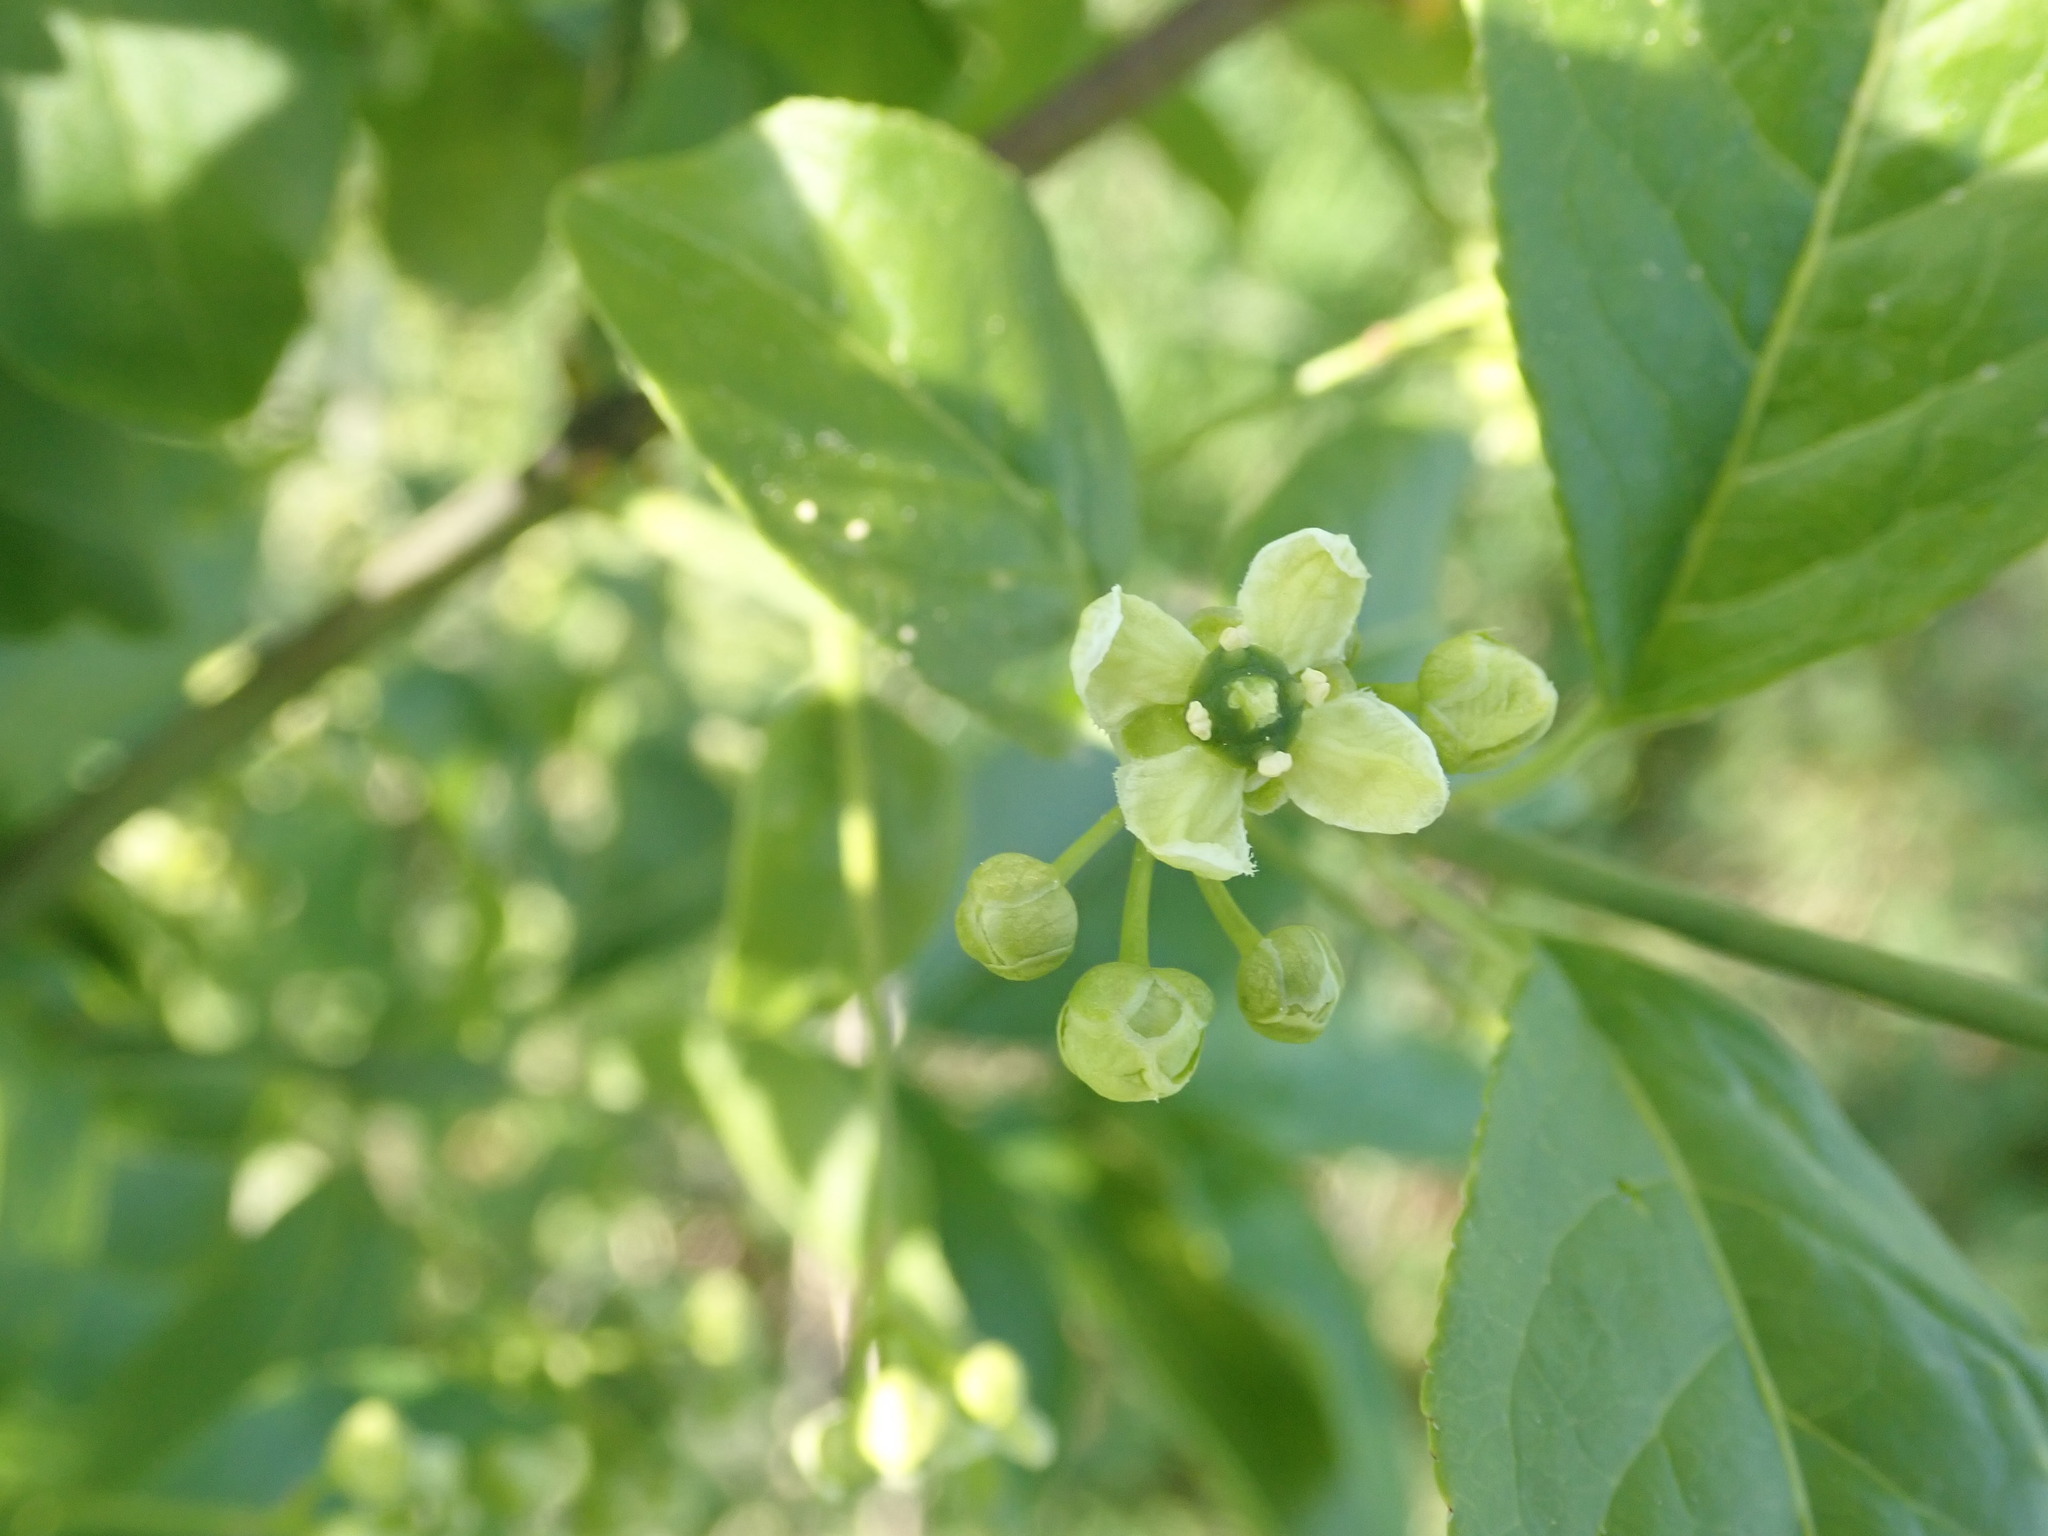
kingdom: Plantae
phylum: Tracheophyta
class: Magnoliopsida
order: Celastrales
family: Celastraceae
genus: Euonymus
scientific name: Euonymus europaeus
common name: Spindle
